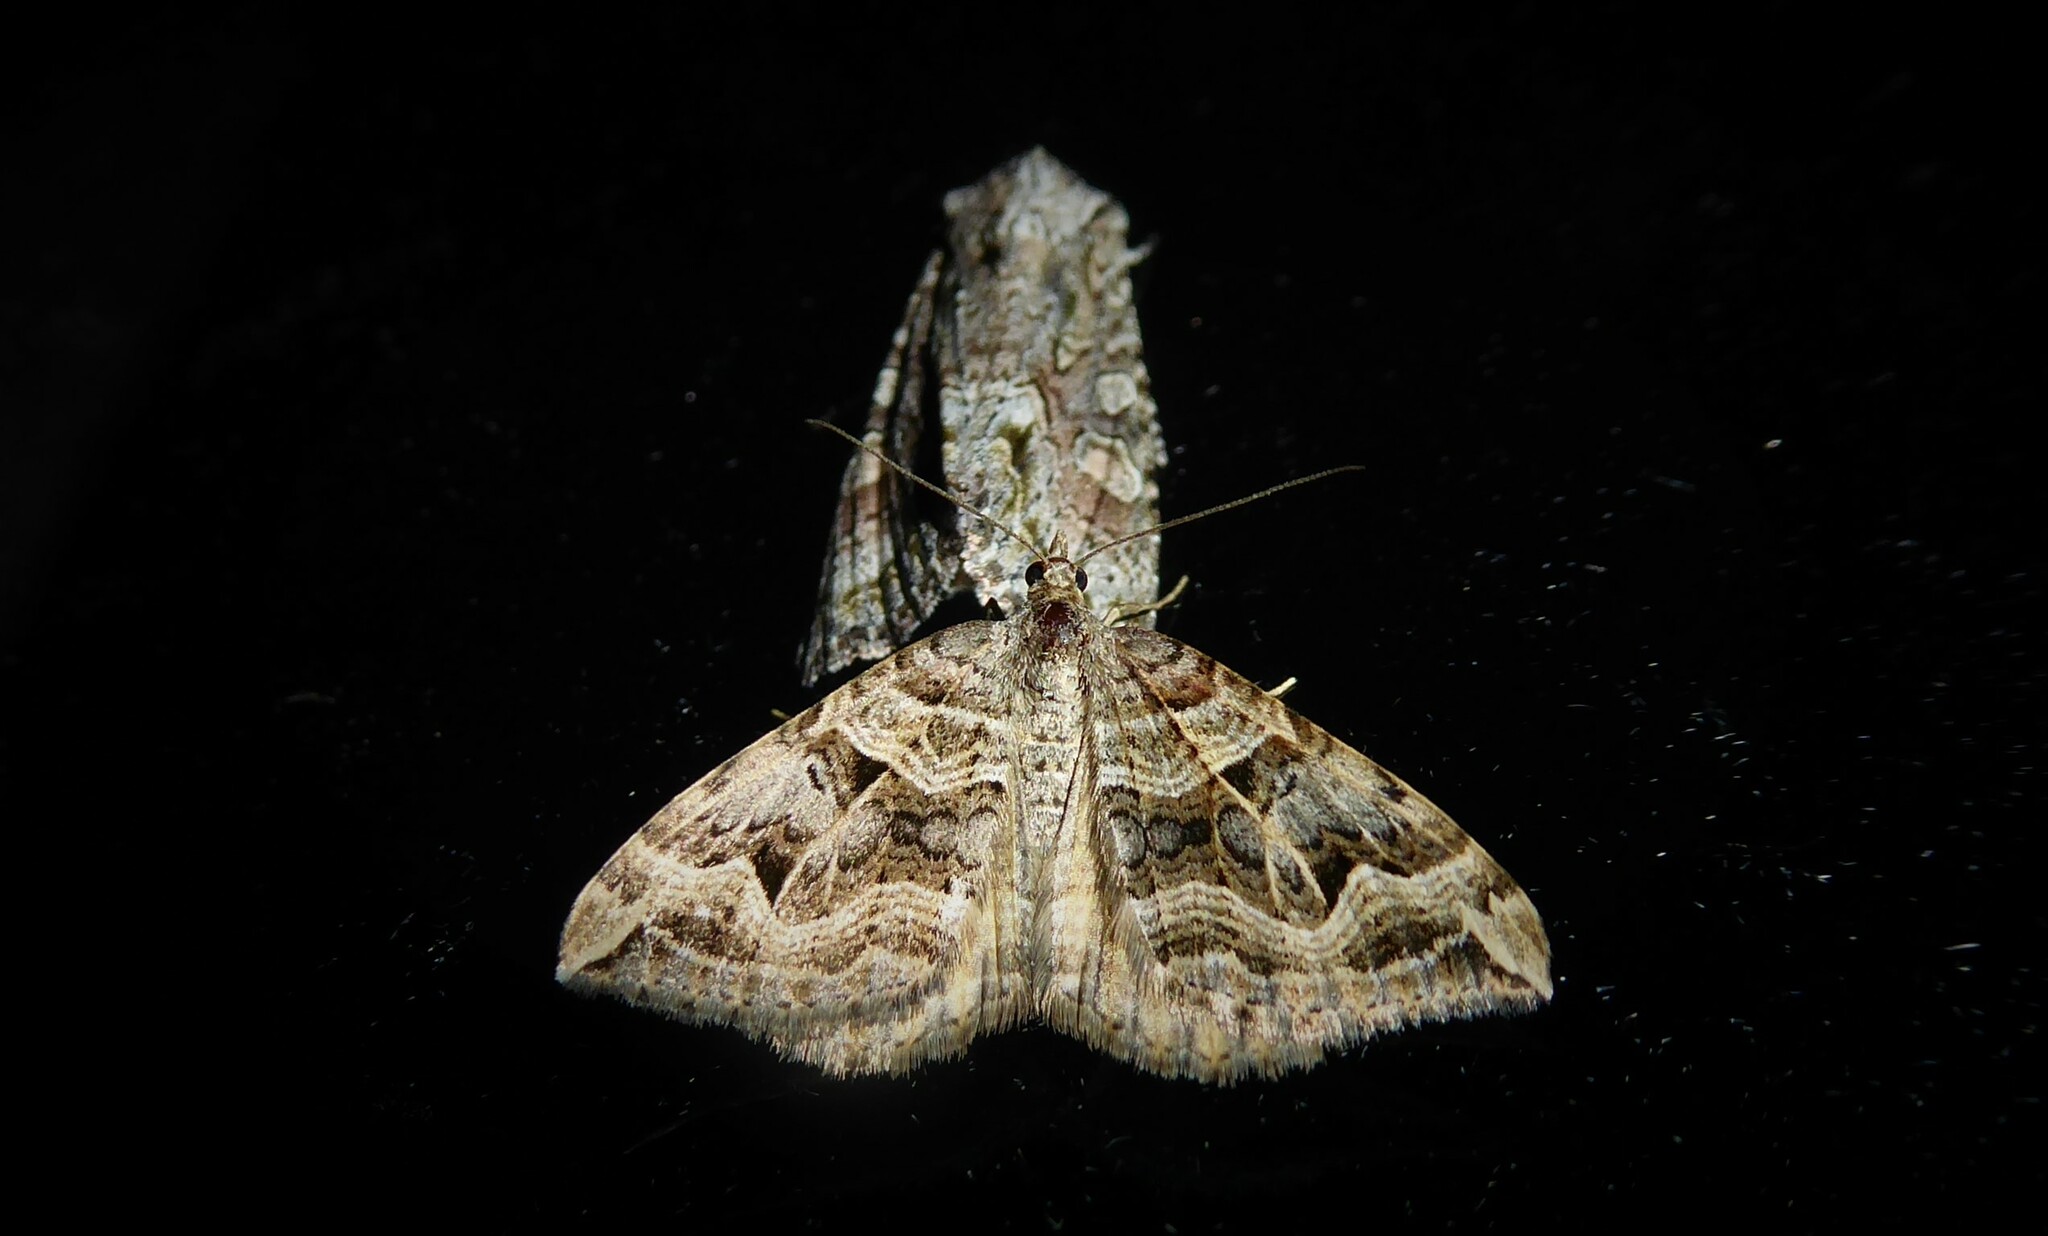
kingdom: Animalia
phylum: Arthropoda
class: Insecta
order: Lepidoptera
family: Geometridae
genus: Xanthorhoe
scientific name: Xanthorhoe semifissata
